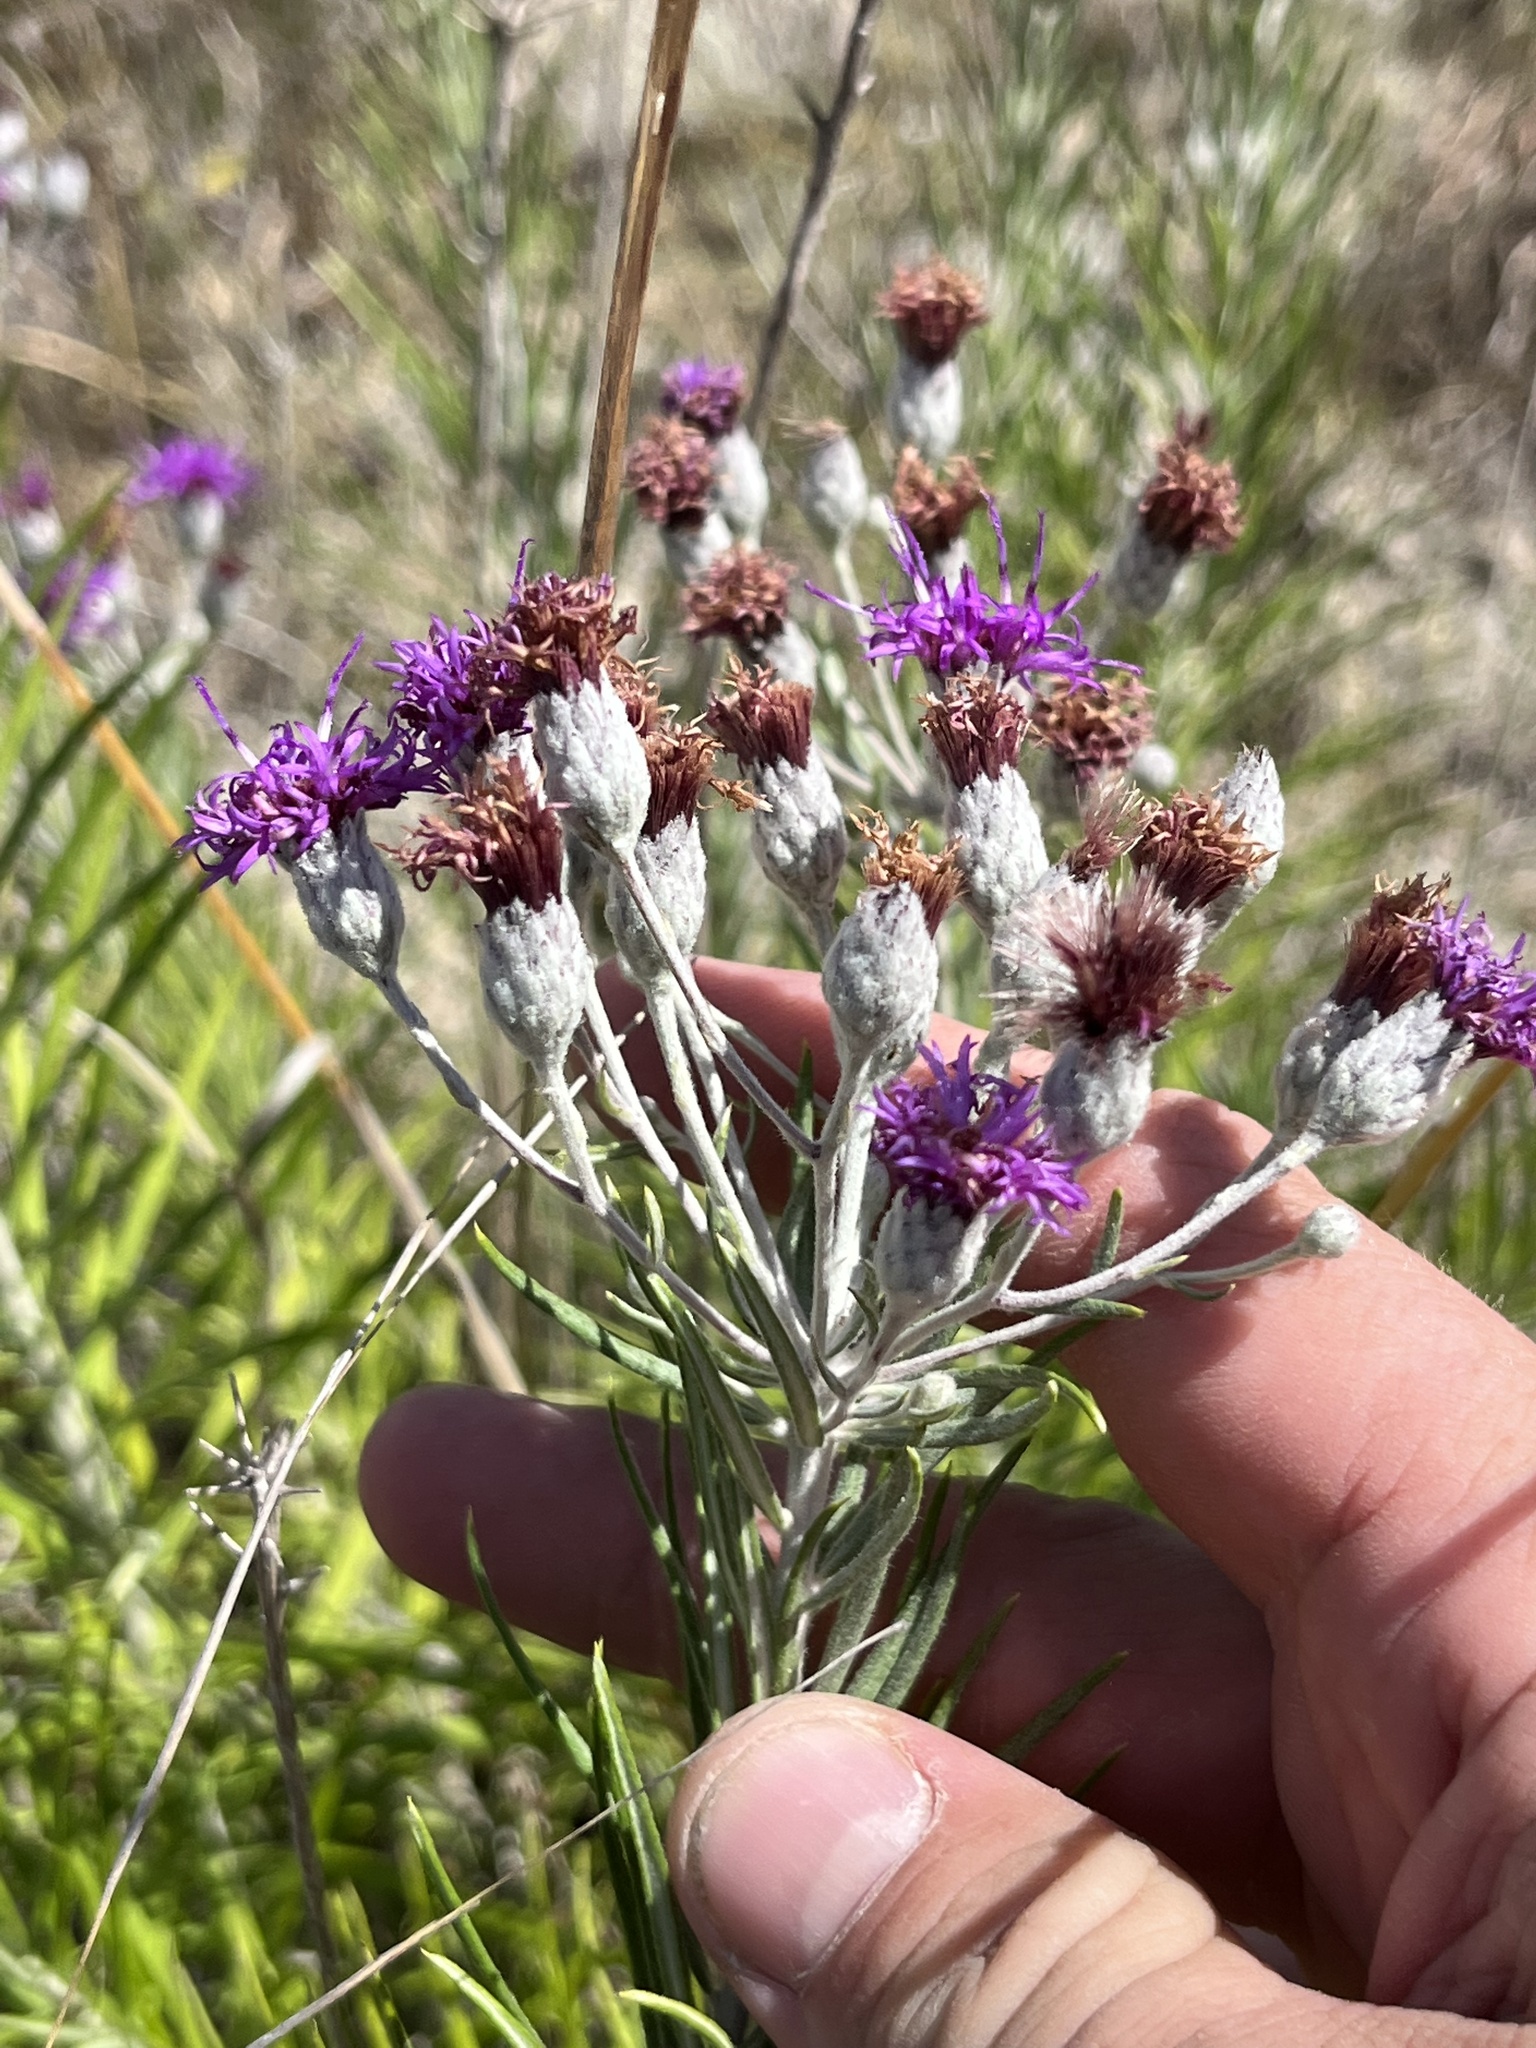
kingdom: Plantae
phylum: Tracheophyta
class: Magnoliopsida
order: Asterales
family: Asteraceae
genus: Vernonia
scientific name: Vernonia lindheimeri
